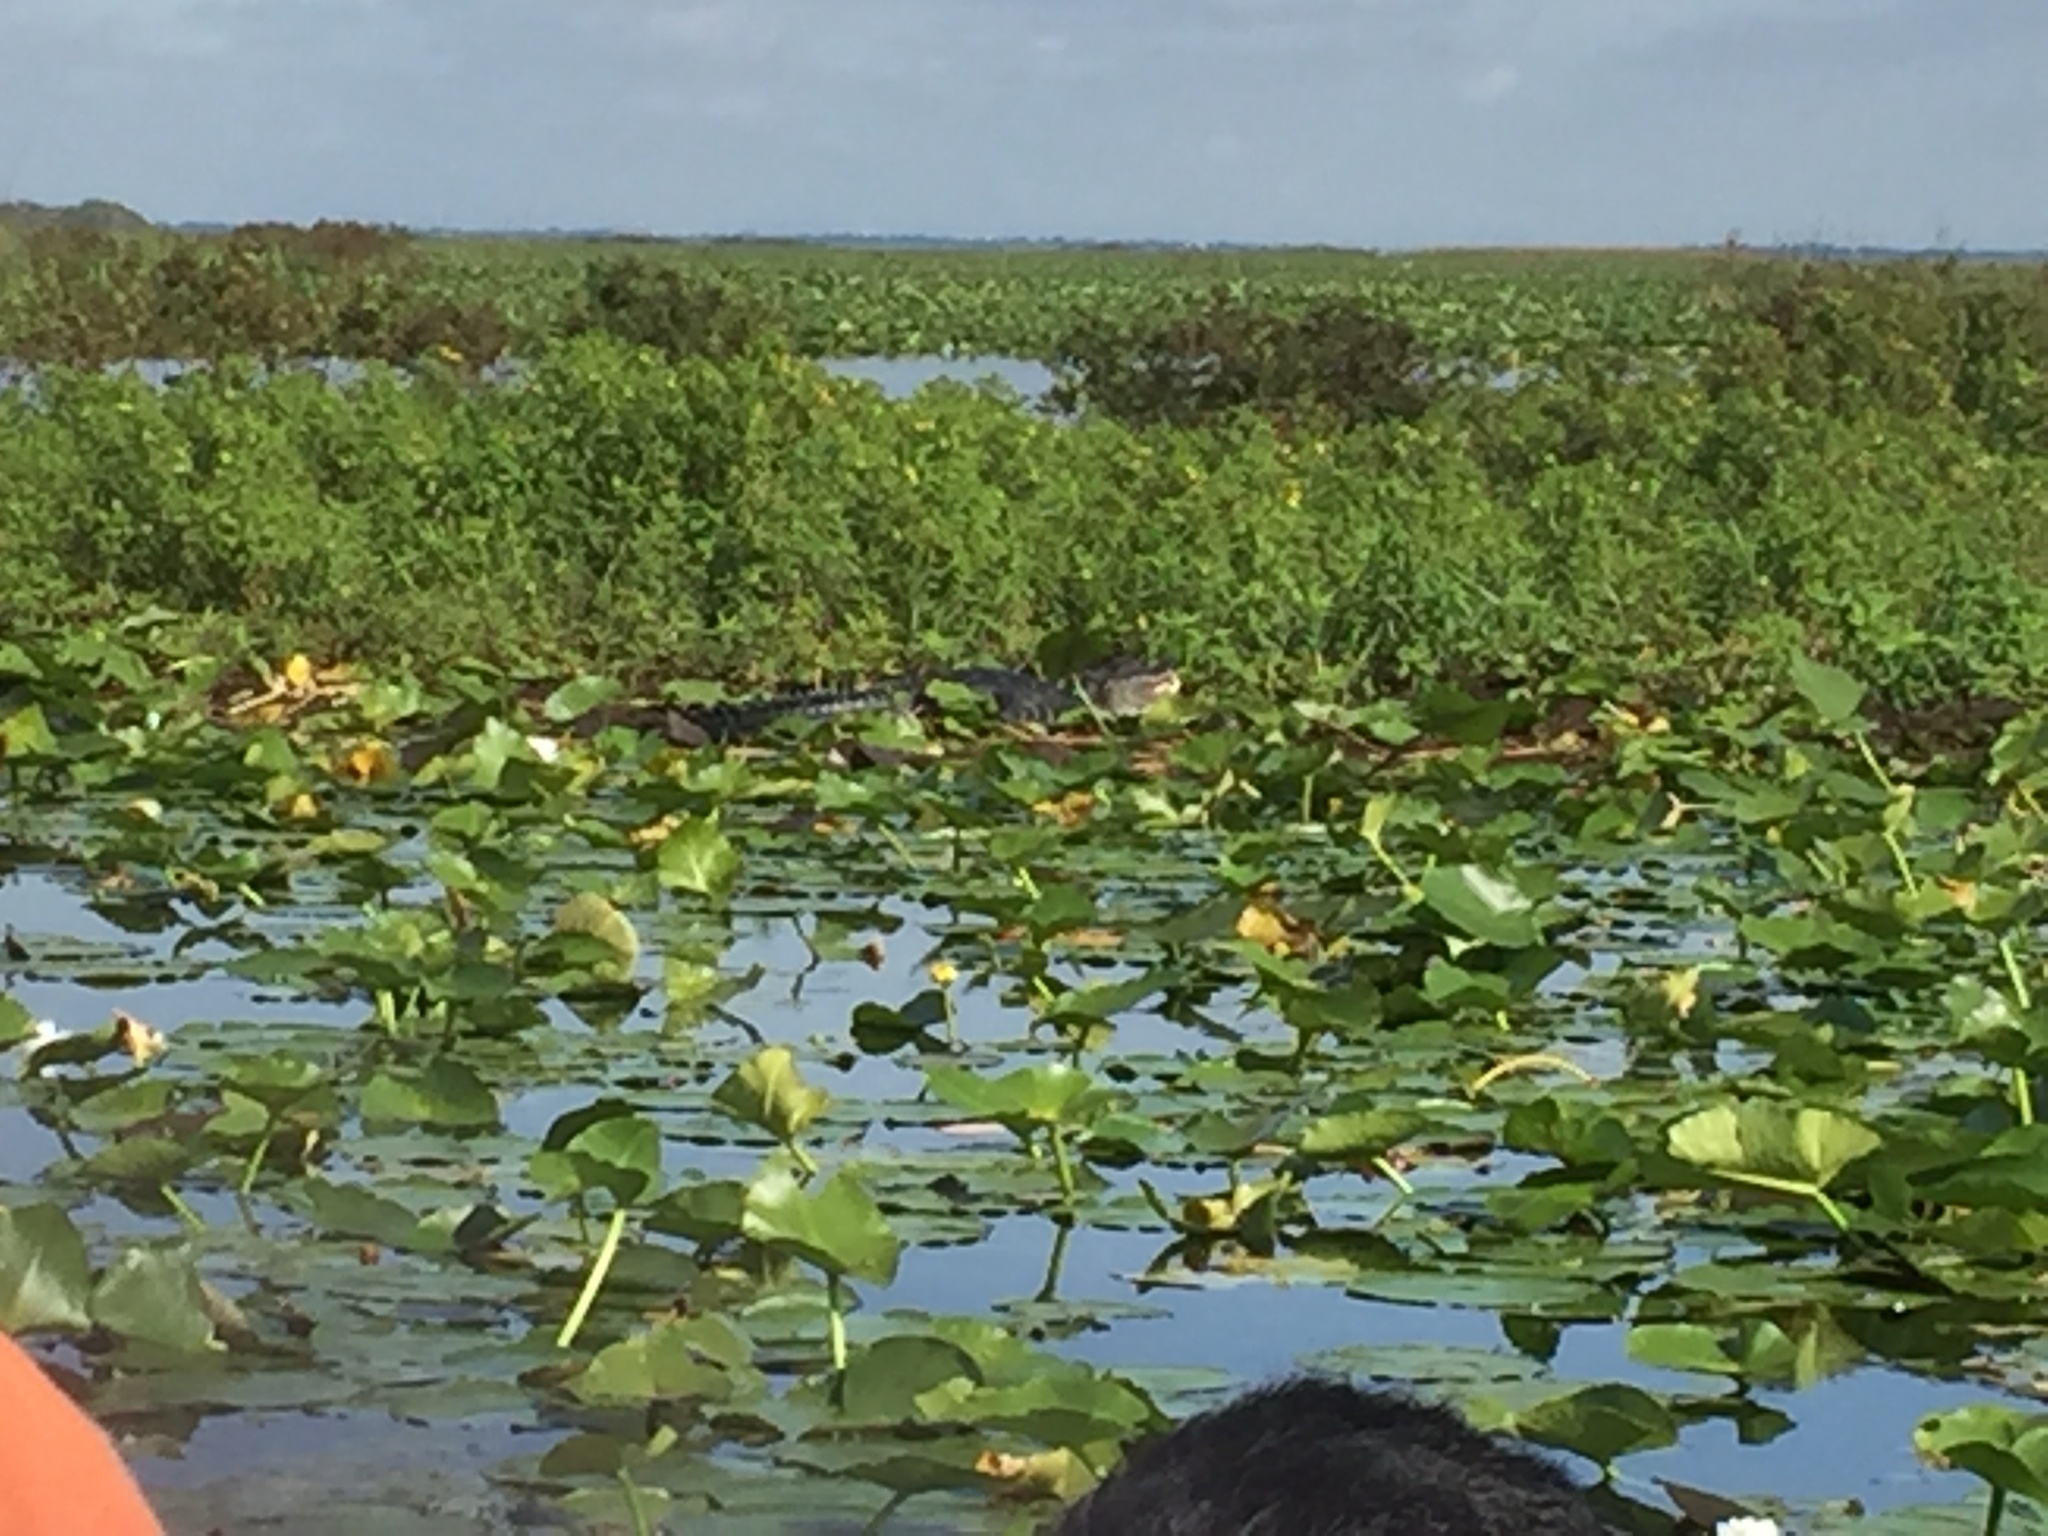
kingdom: Animalia
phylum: Chordata
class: Crocodylia
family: Alligatoridae
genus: Alligator
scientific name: Alligator mississippiensis
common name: American alligator
